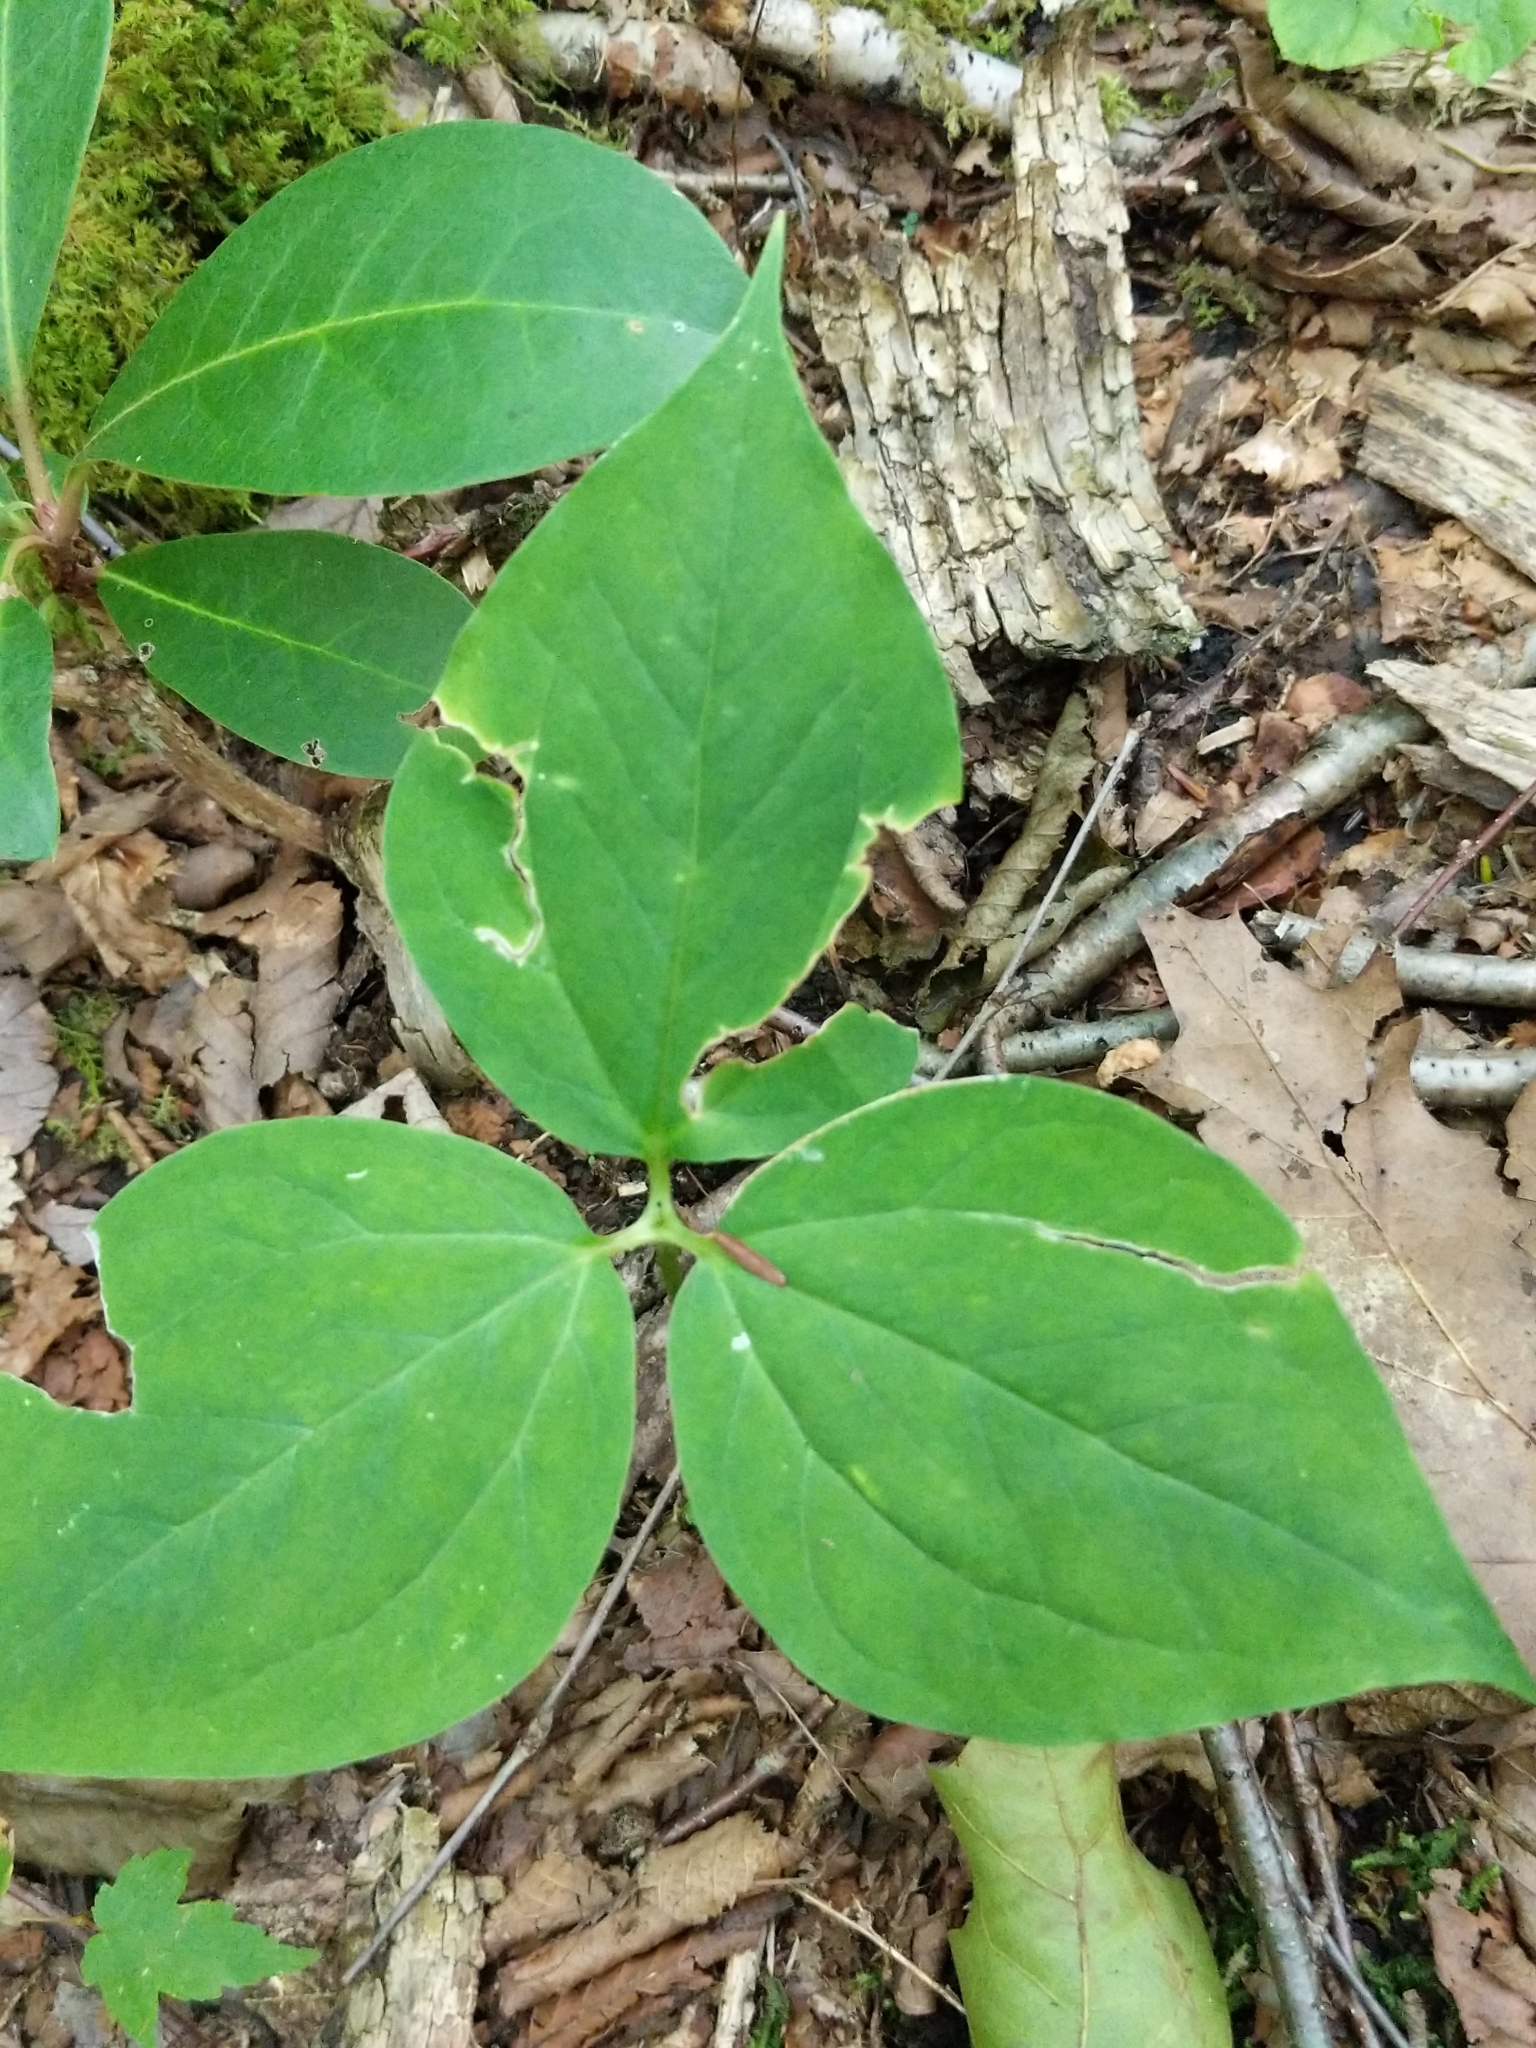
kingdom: Plantae
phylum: Tracheophyta
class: Liliopsida
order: Liliales
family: Melanthiaceae
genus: Trillium
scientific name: Trillium undulatum
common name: Paint trillium
